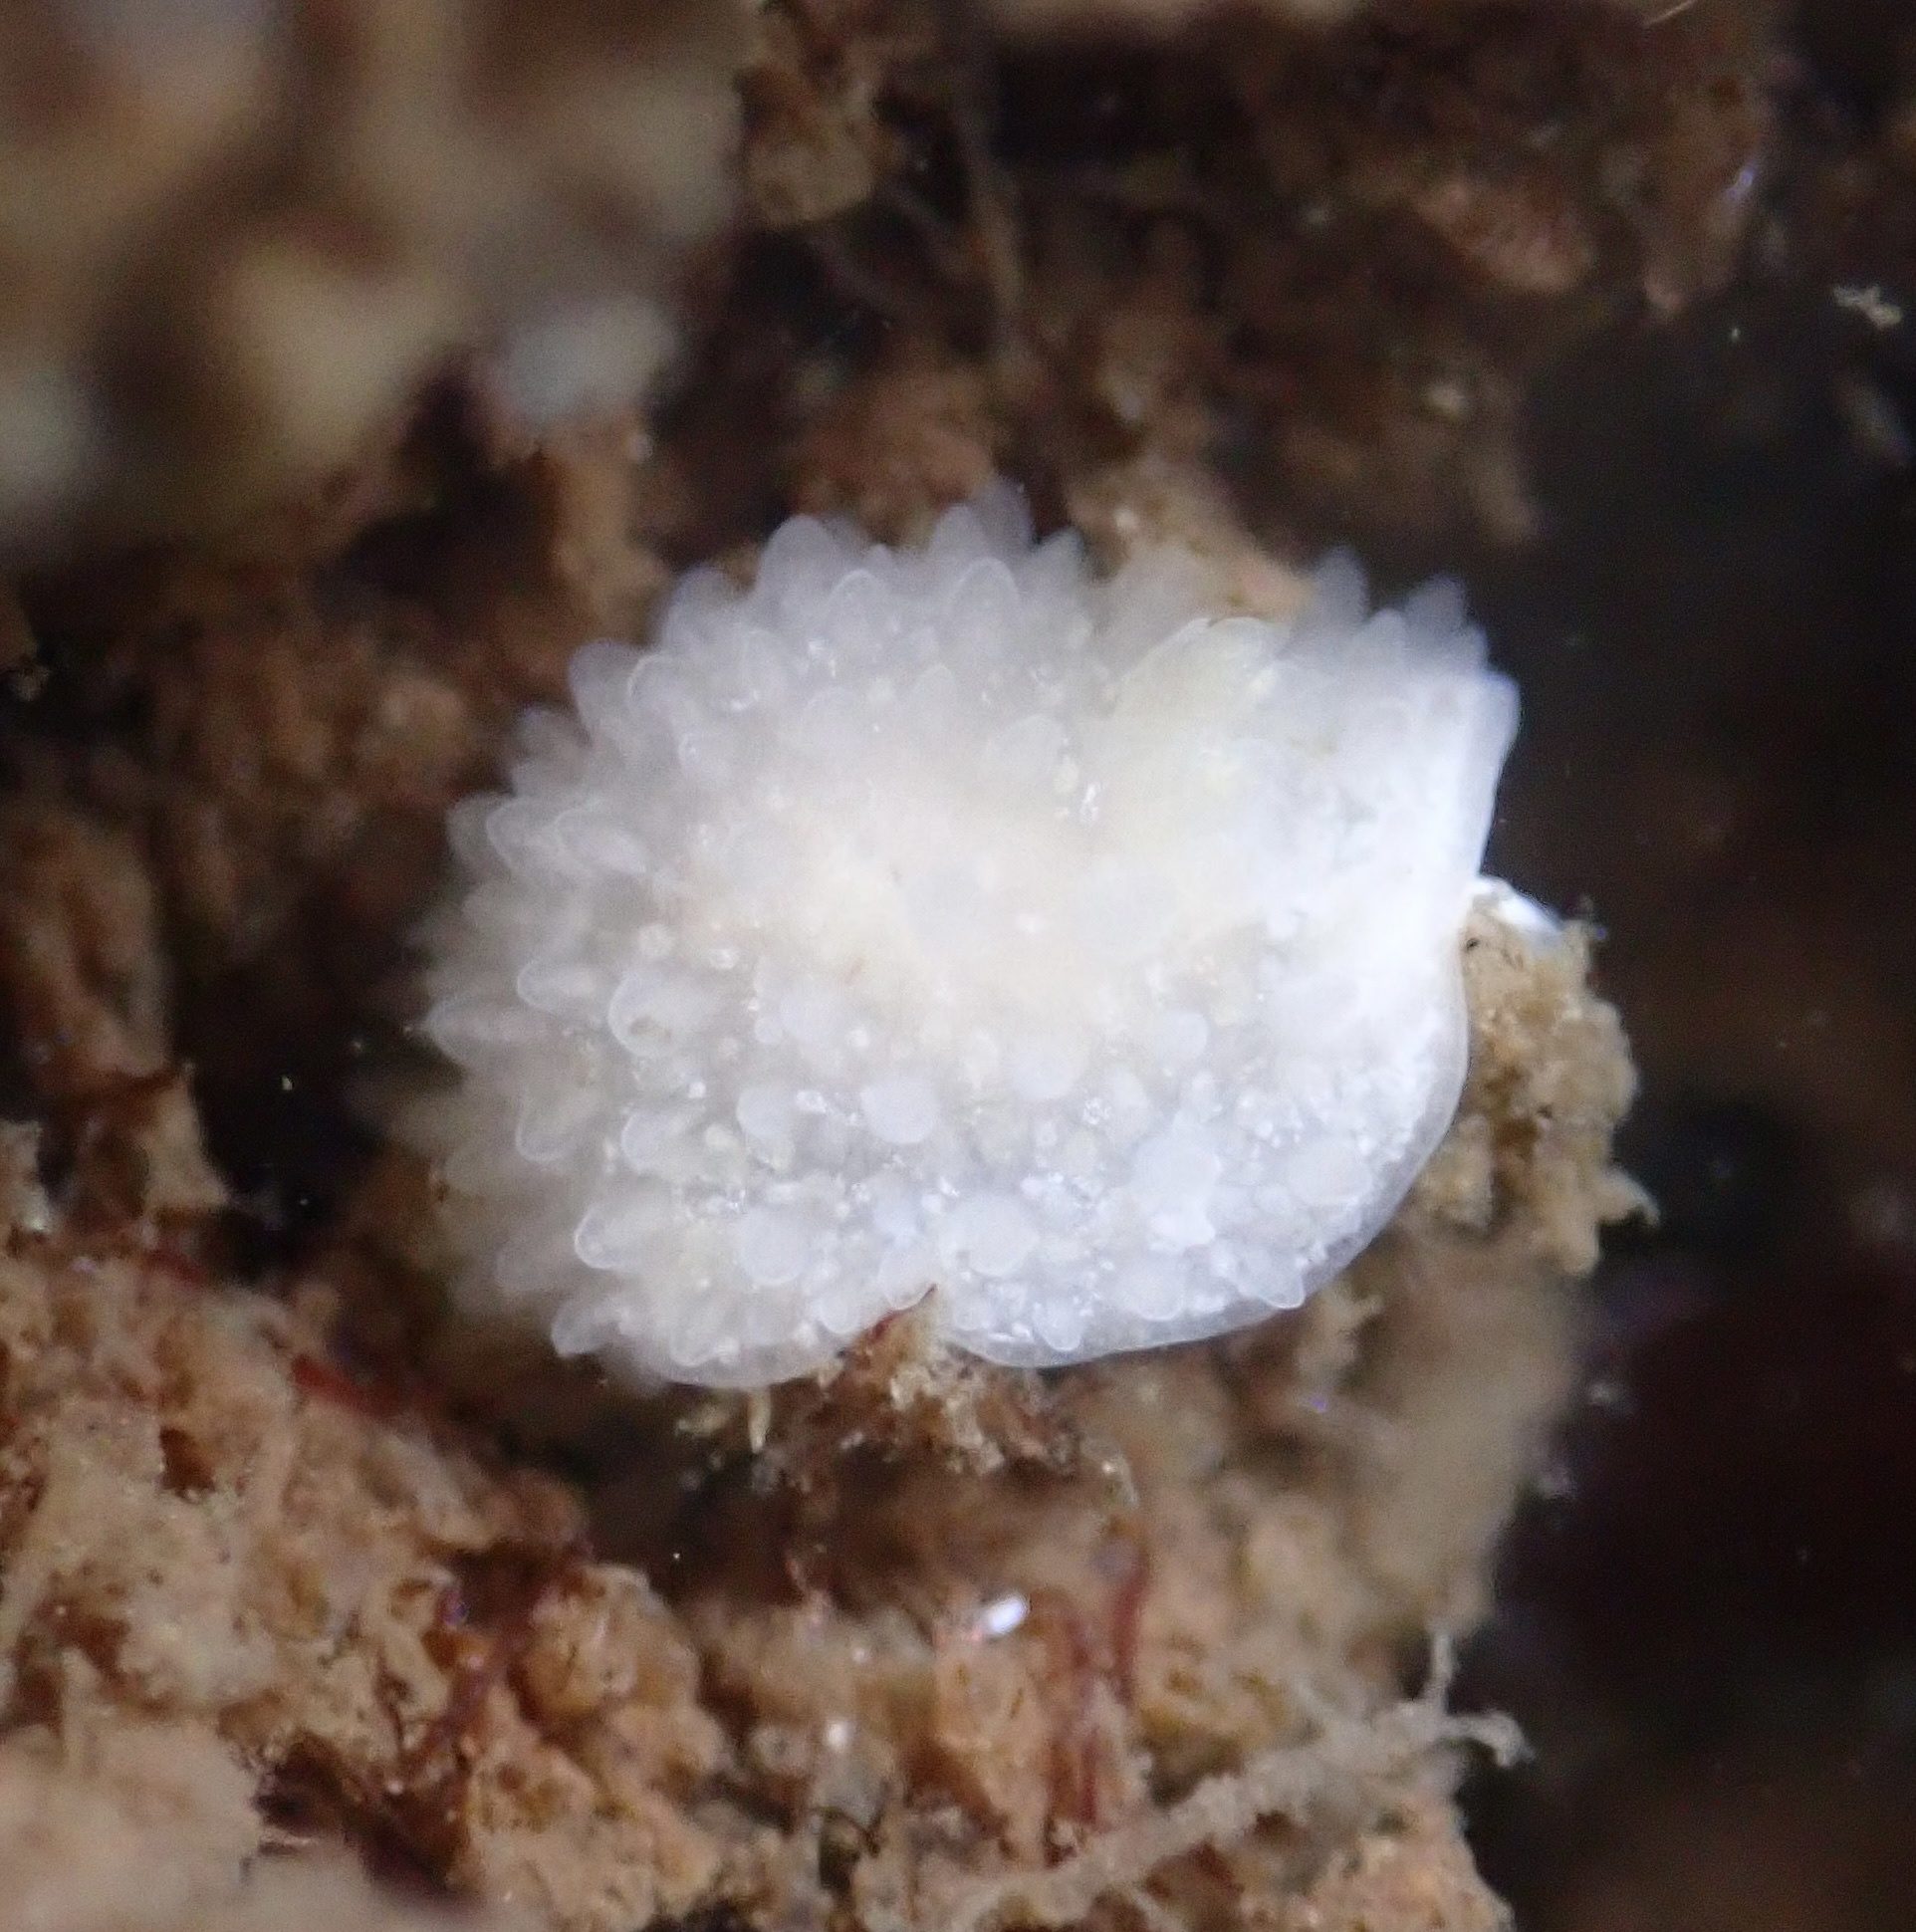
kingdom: Animalia
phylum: Mollusca
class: Gastropoda
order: Nudibranchia
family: Calycidorididae
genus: Diaphorodoris
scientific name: Diaphorodoris lirulatocauda
